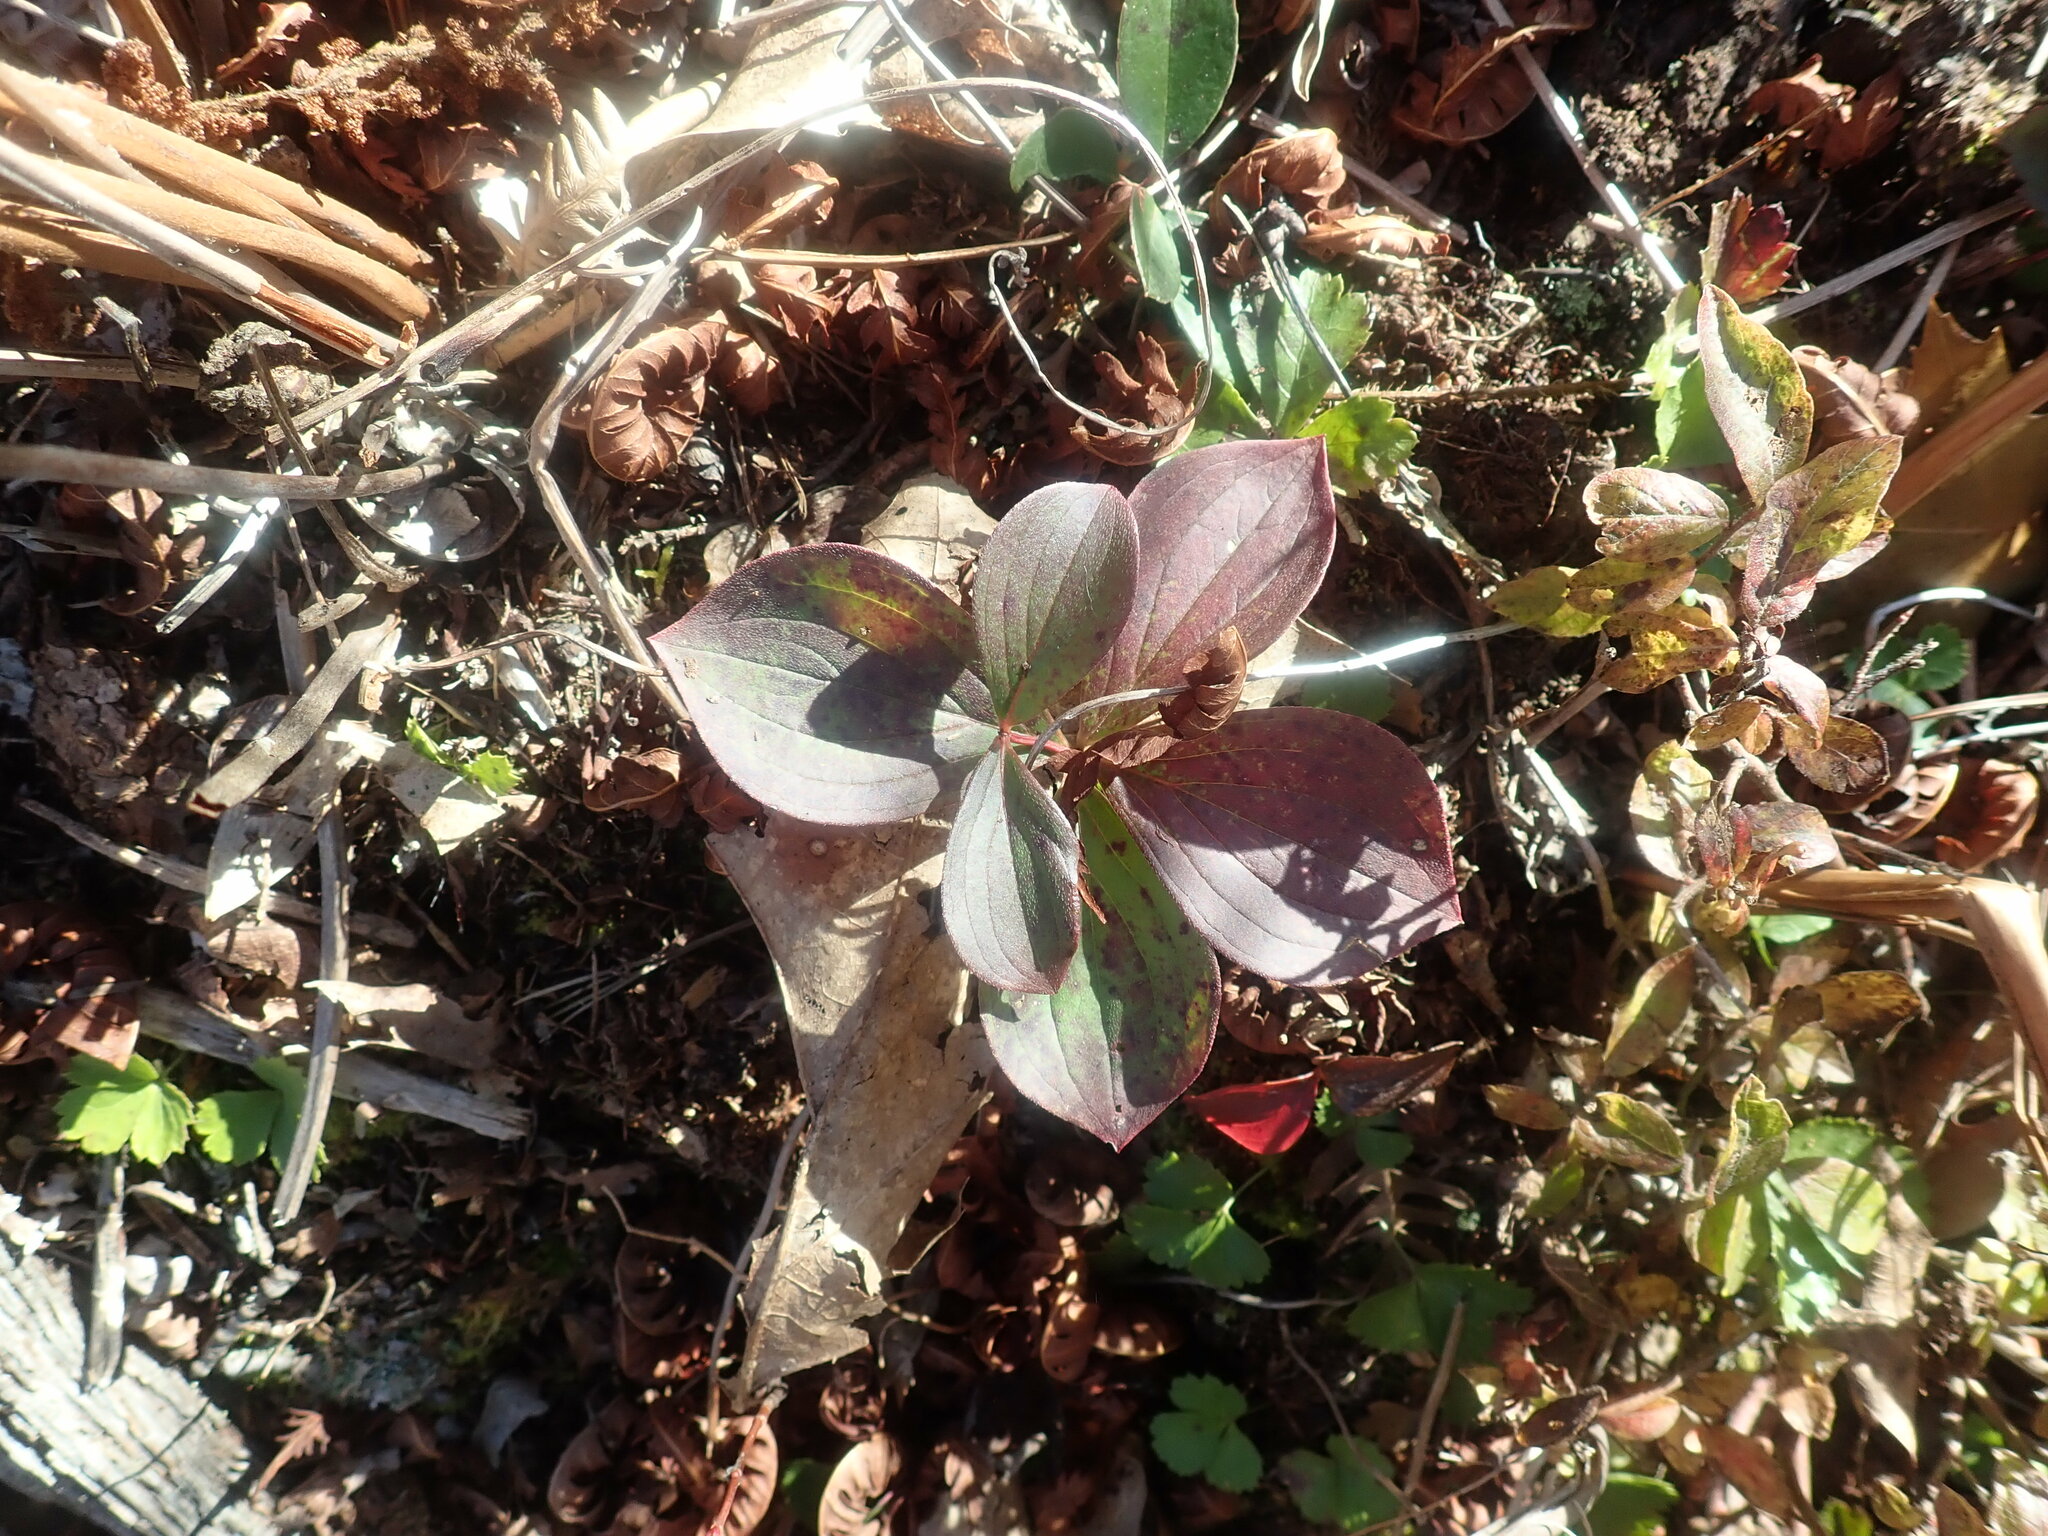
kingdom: Plantae
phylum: Tracheophyta
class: Magnoliopsida
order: Cornales
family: Cornaceae
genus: Cornus
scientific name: Cornus canadensis
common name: Creeping dogwood
